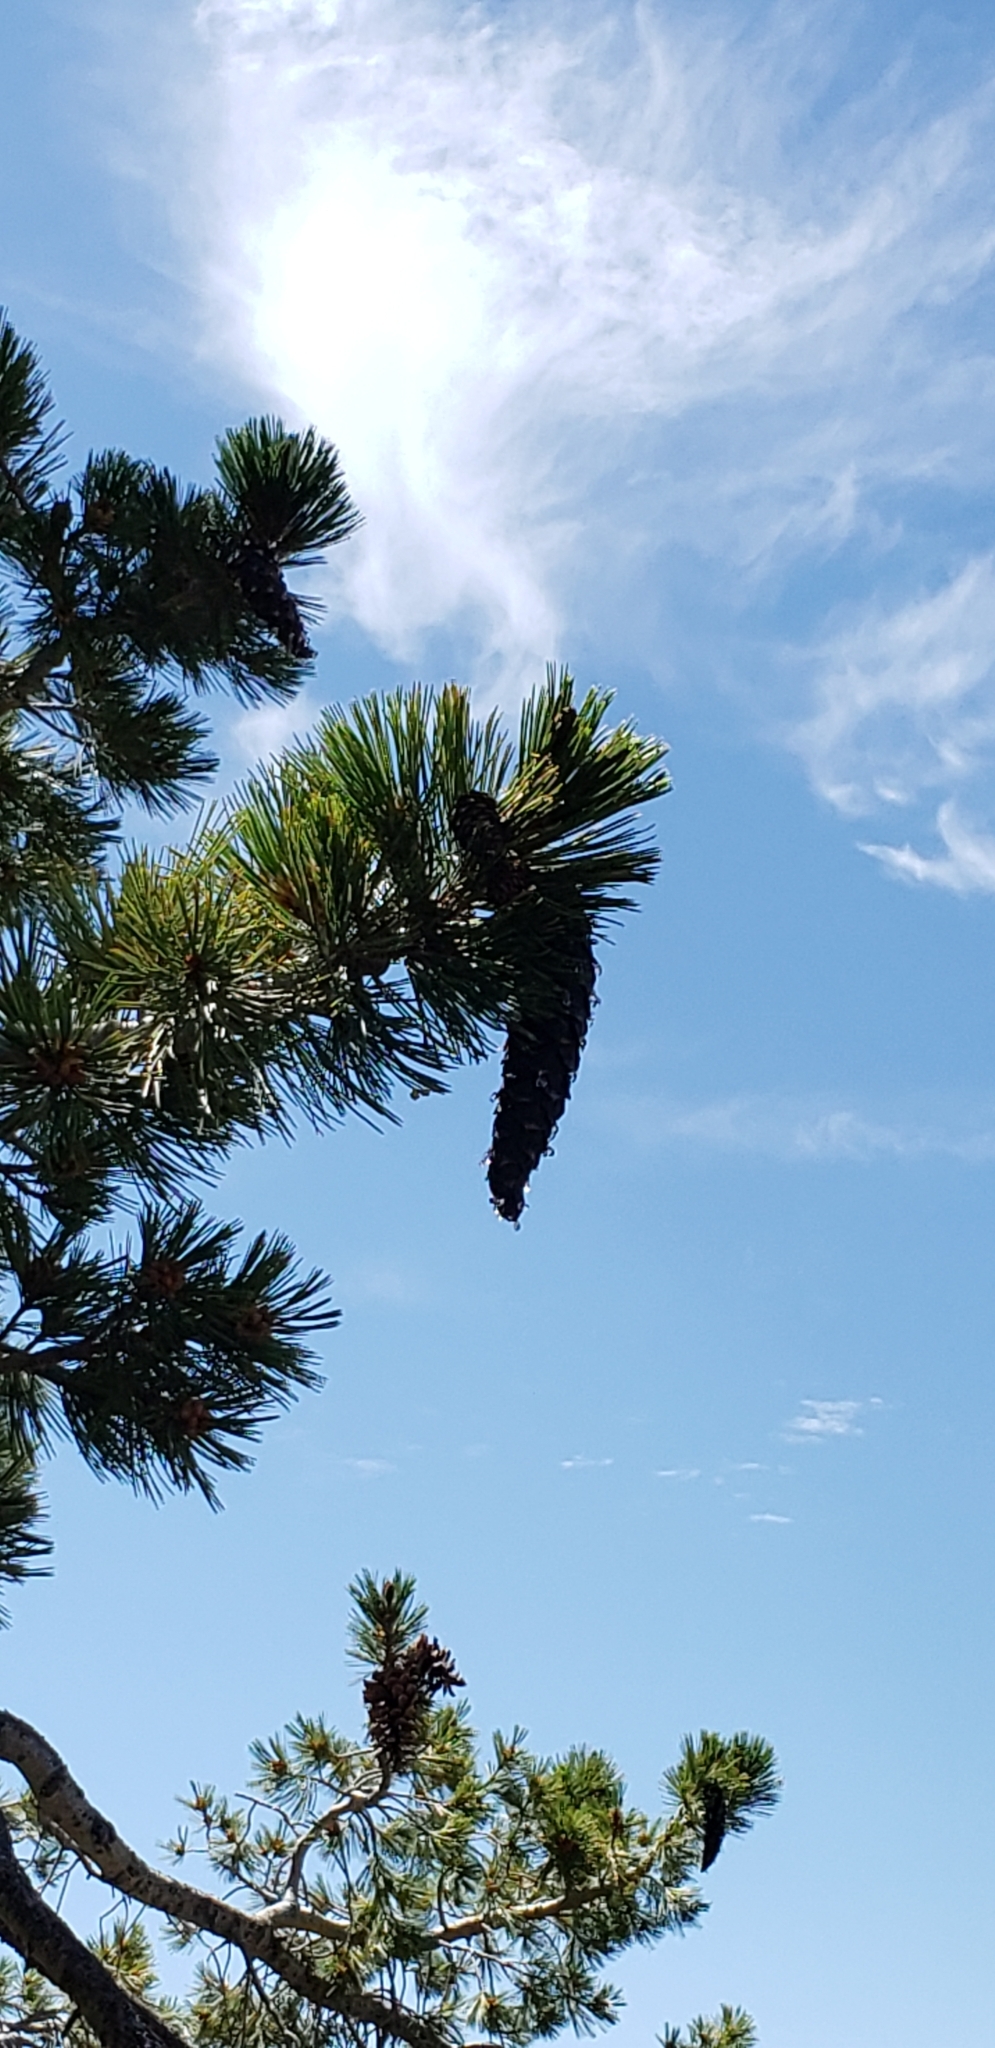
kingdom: Plantae
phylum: Tracheophyta
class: Pinopsida
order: Pinales
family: Pinaceae
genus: Pinus
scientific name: Pinus monticola
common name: Western white pine
